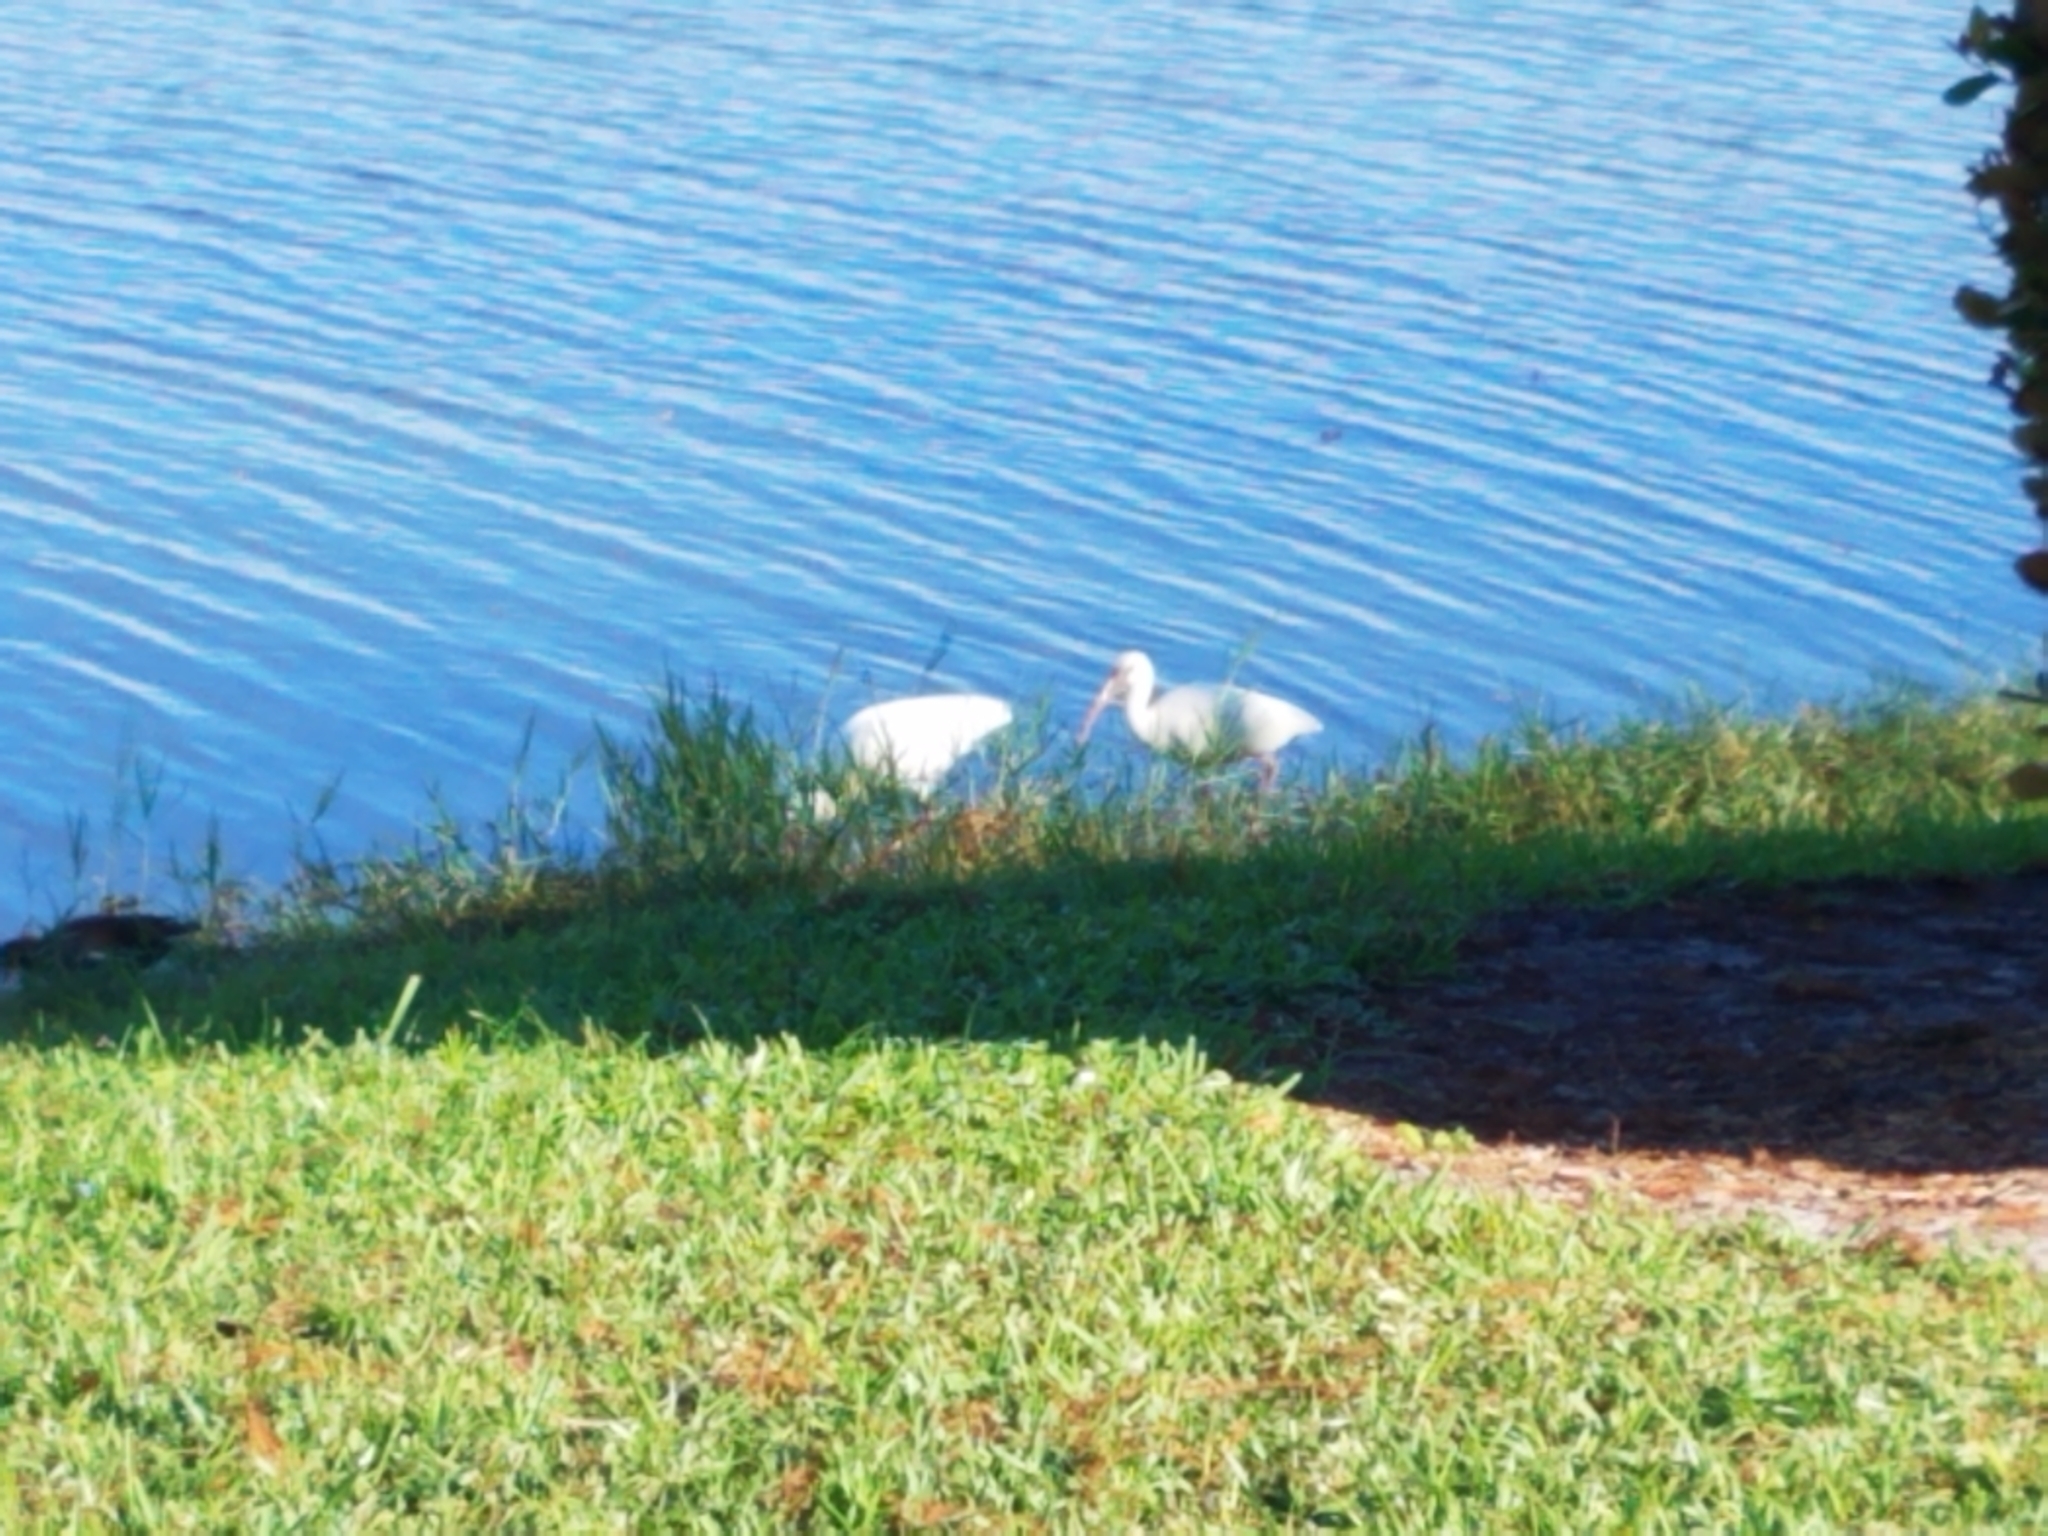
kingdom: Animalia
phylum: Chordata
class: Aves
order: Pelecaniformes
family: Threskiornithidae
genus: Eudocimus
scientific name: Eudocimus albus
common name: White ibis
